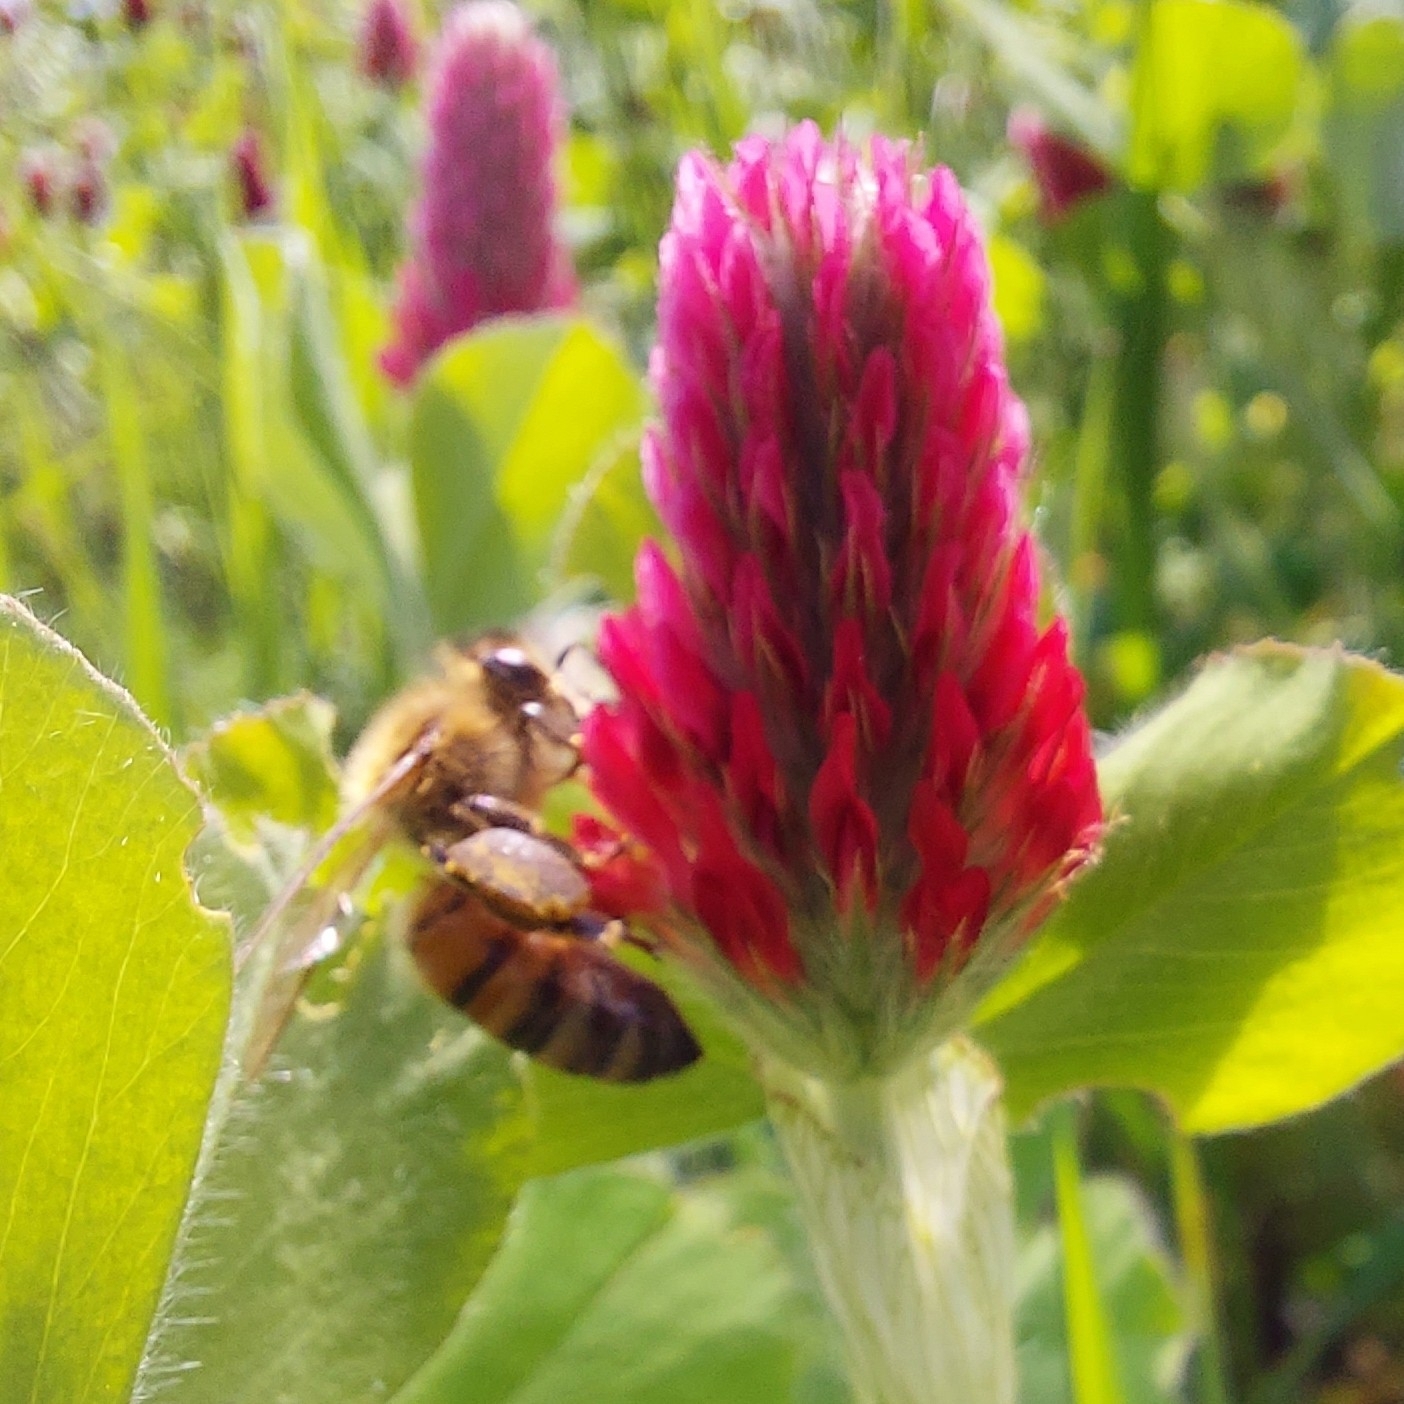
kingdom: Animalia
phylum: Arthropoda
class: Insecta
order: Hymenoptera
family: Apidae
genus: Apis
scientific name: Apis mellifera
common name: Honey bee
